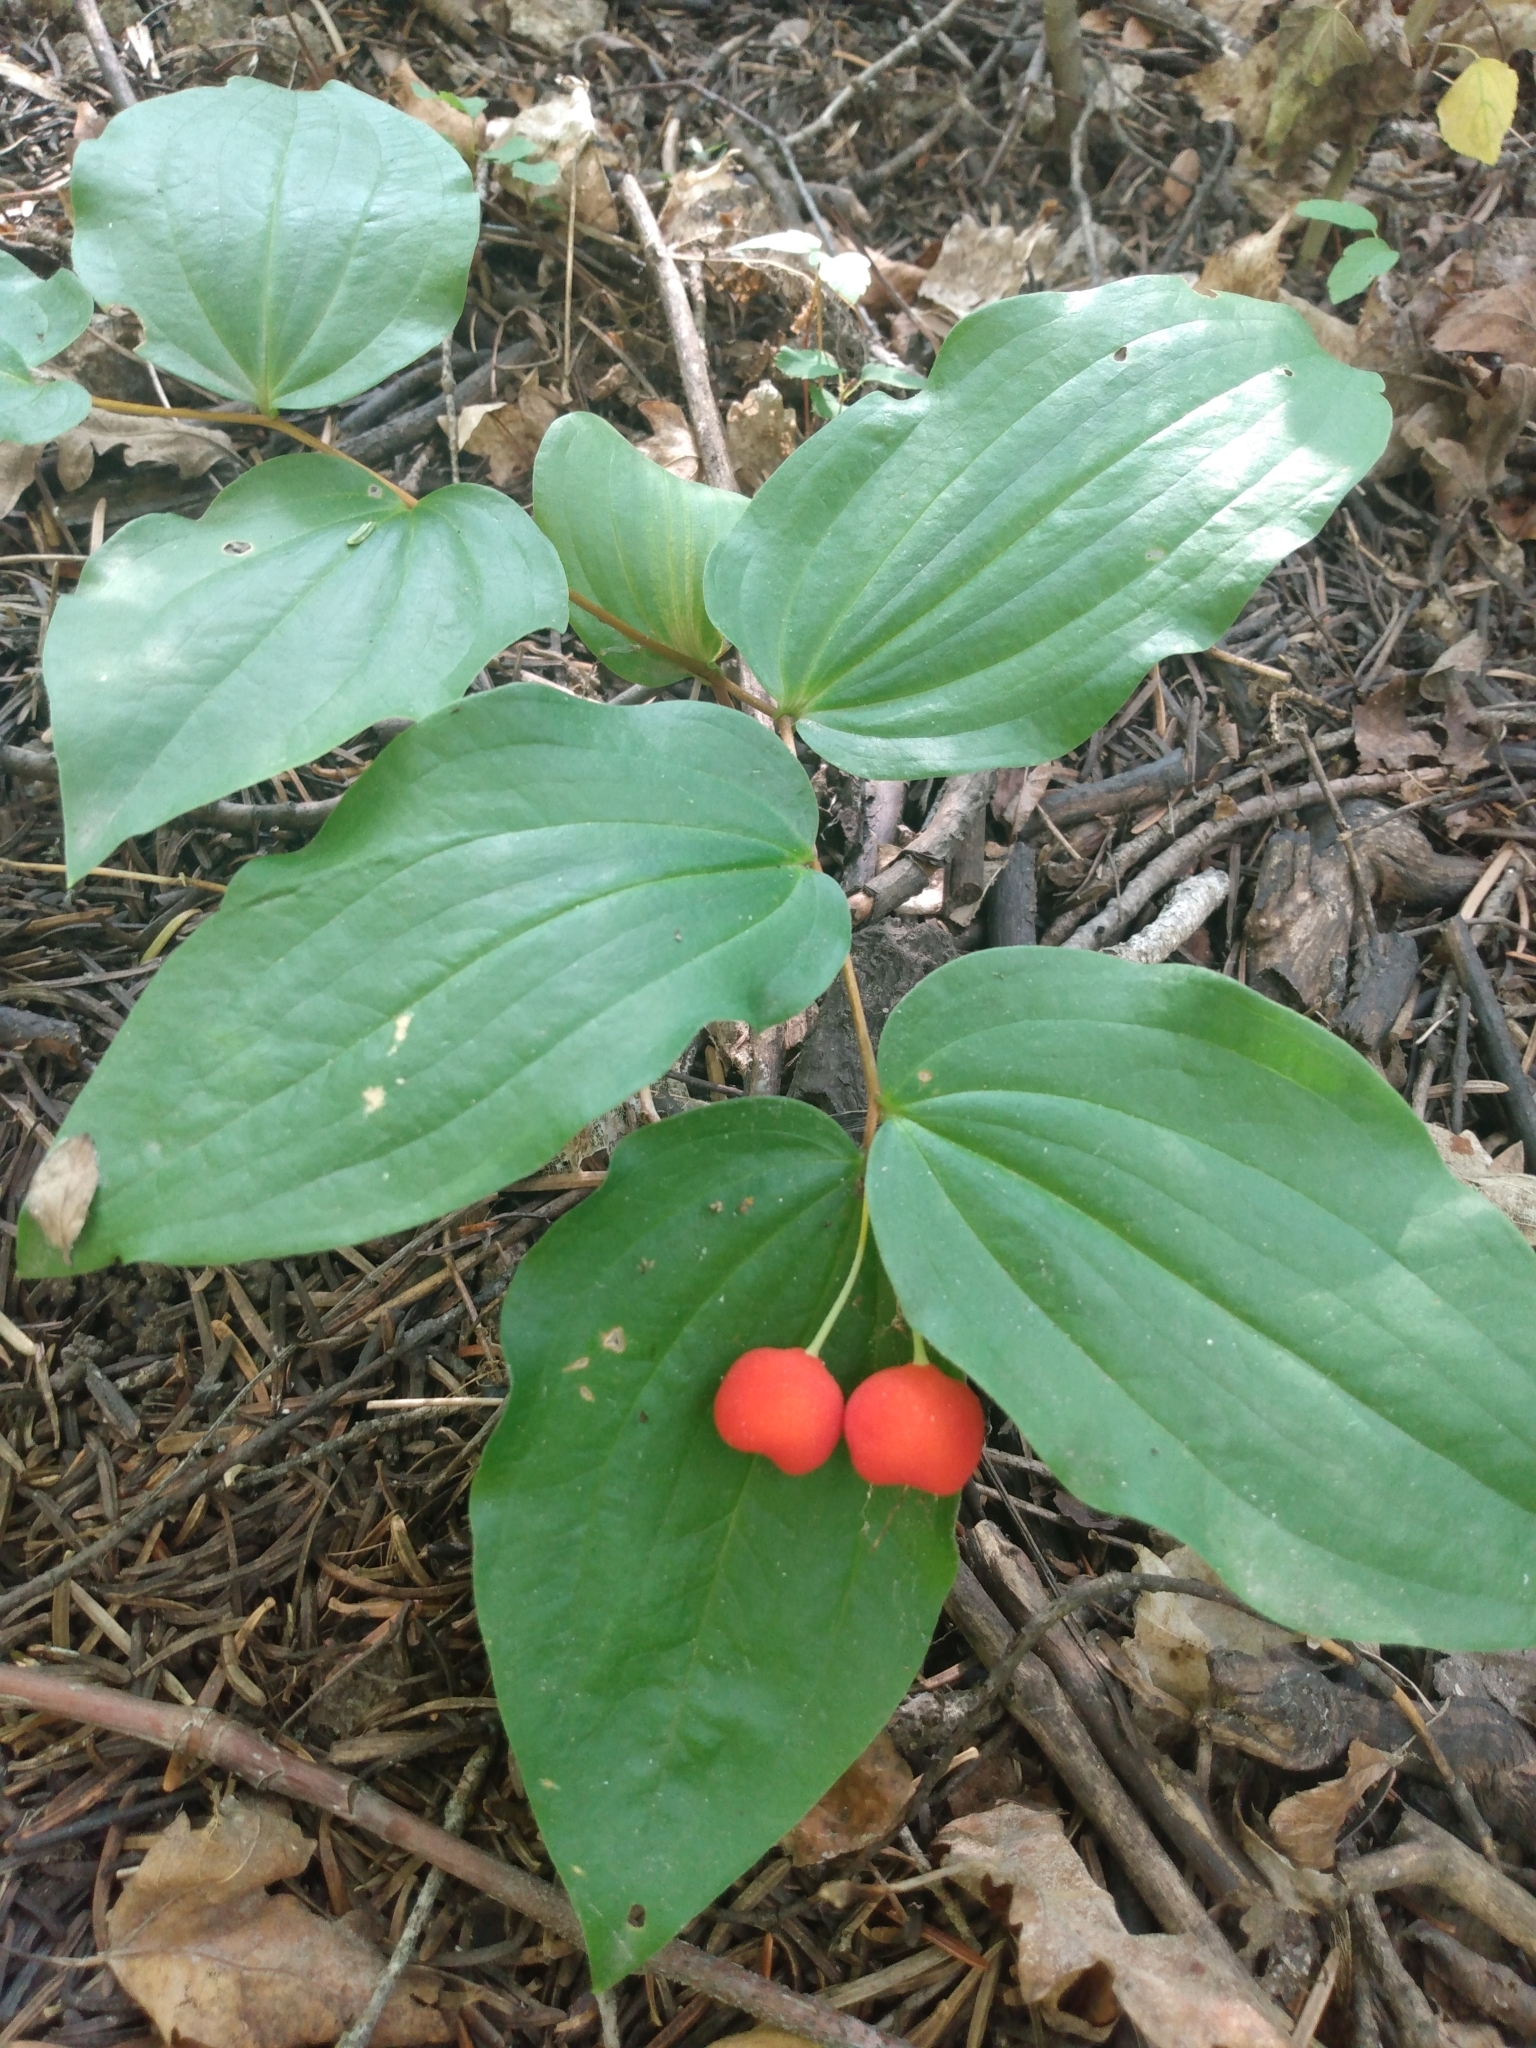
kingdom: Plantae
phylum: Tracheophyta
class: Liliopsida
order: Liliales
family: Liliaceae
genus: Prosartes
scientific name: Prosartes trachycarpa
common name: Rough-fruit fairy-bells
